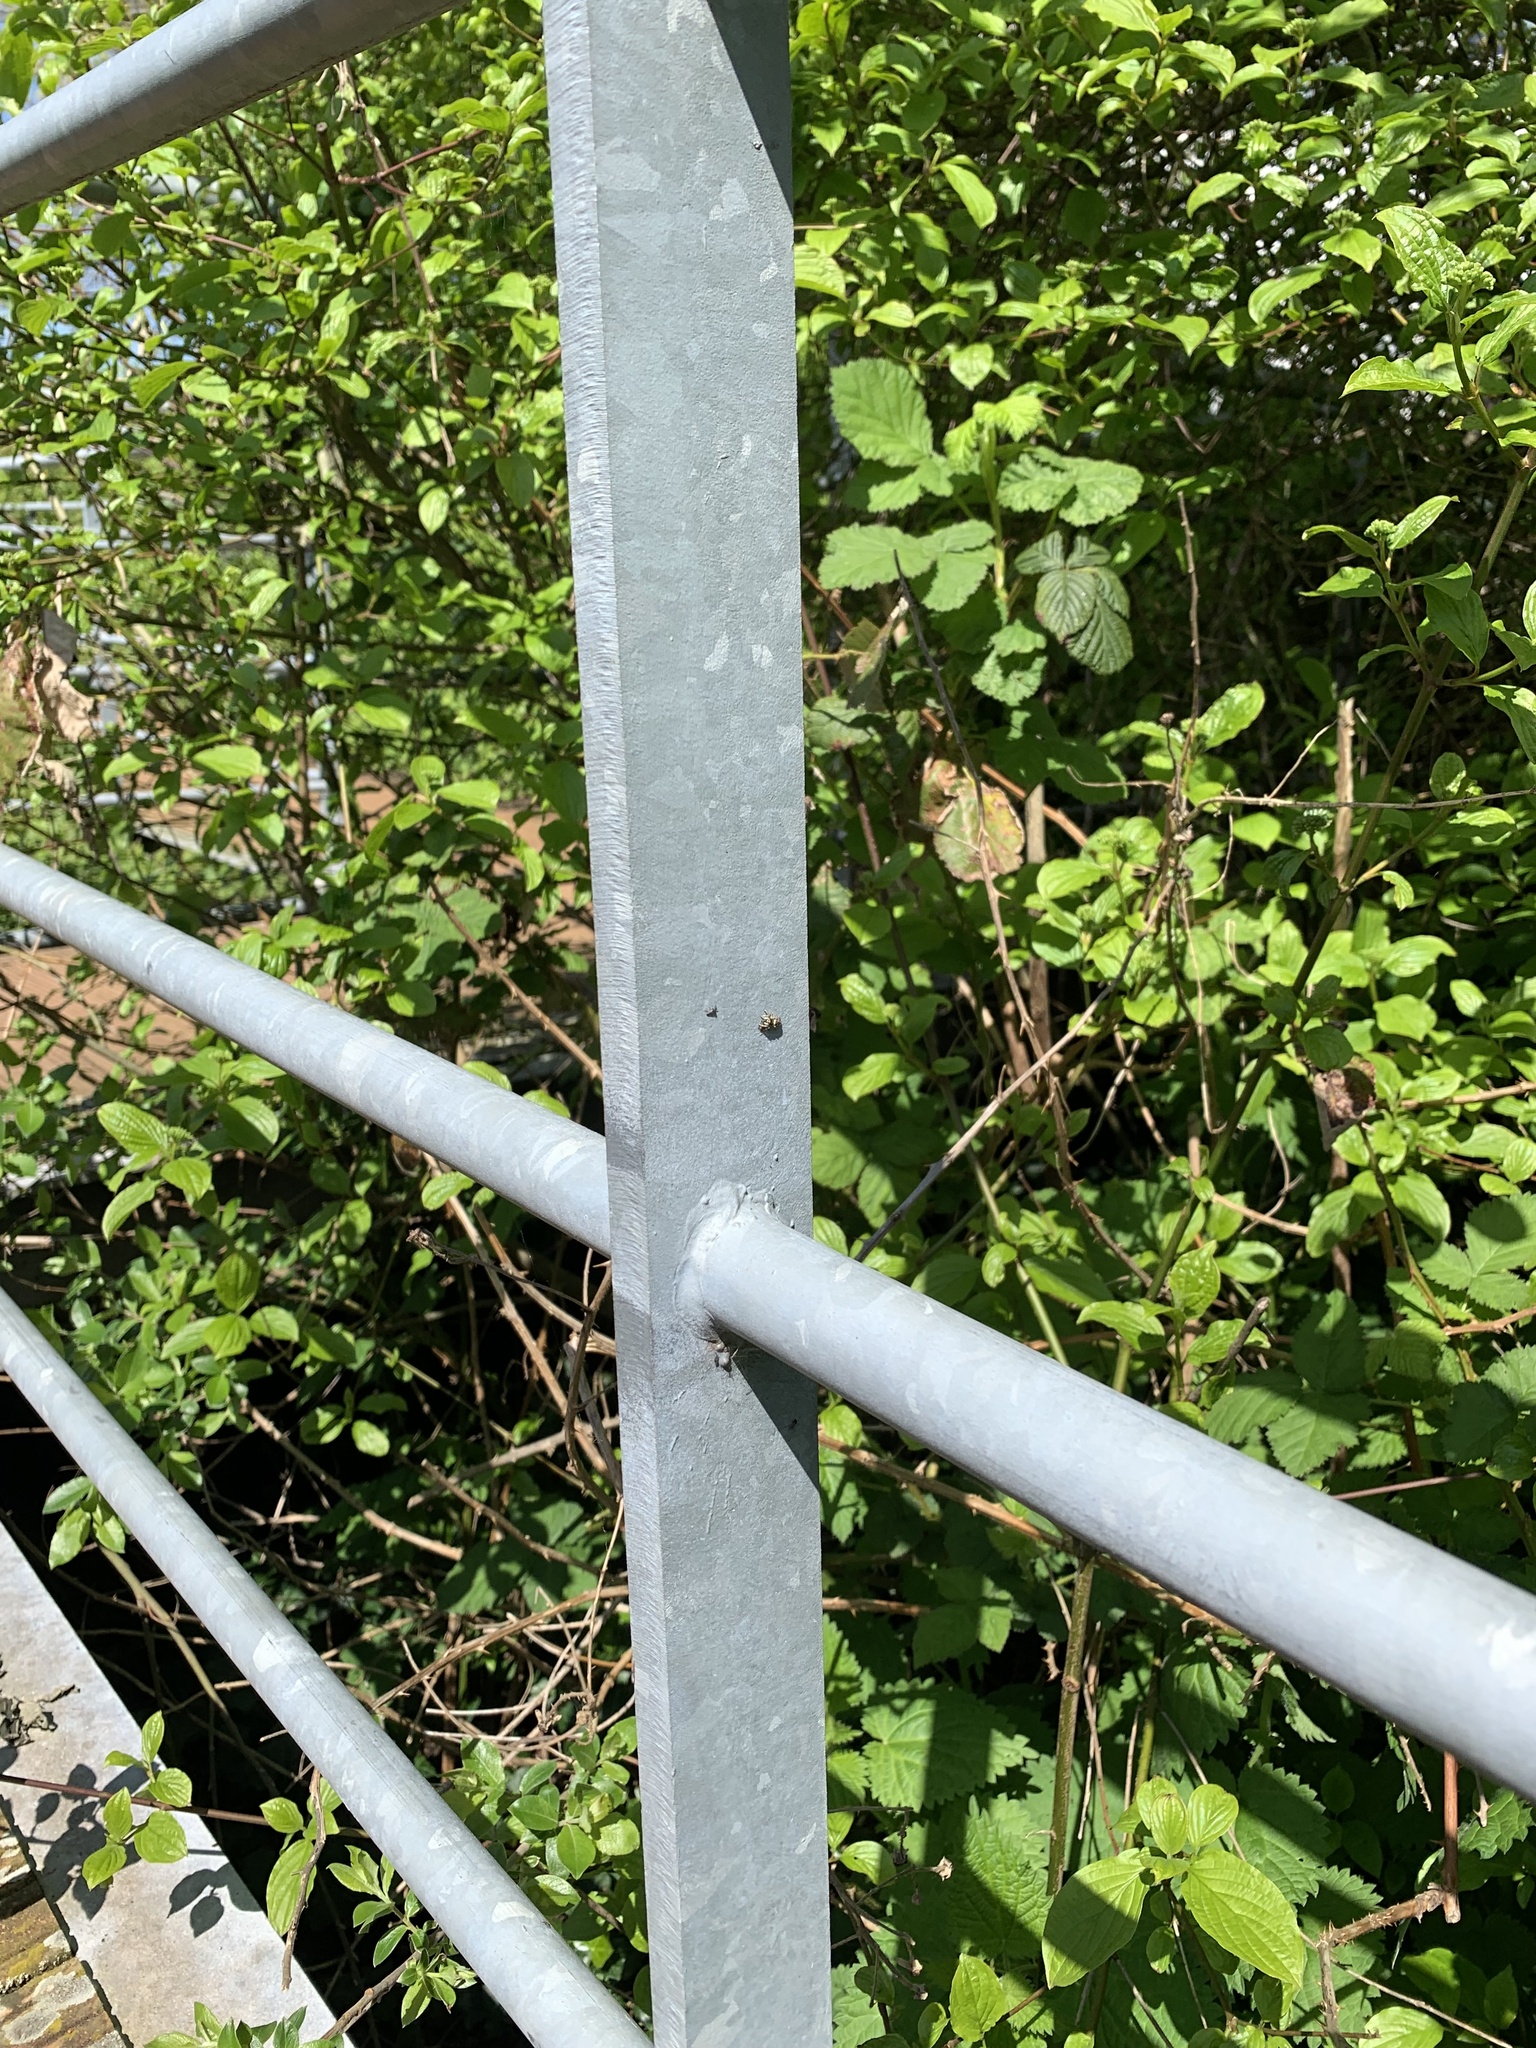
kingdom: Animalia
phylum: Arthropoda
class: Arachnida
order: Araneae
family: Salticidae
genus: Salticus
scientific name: Salticus scenicus
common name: Zebra jumper
